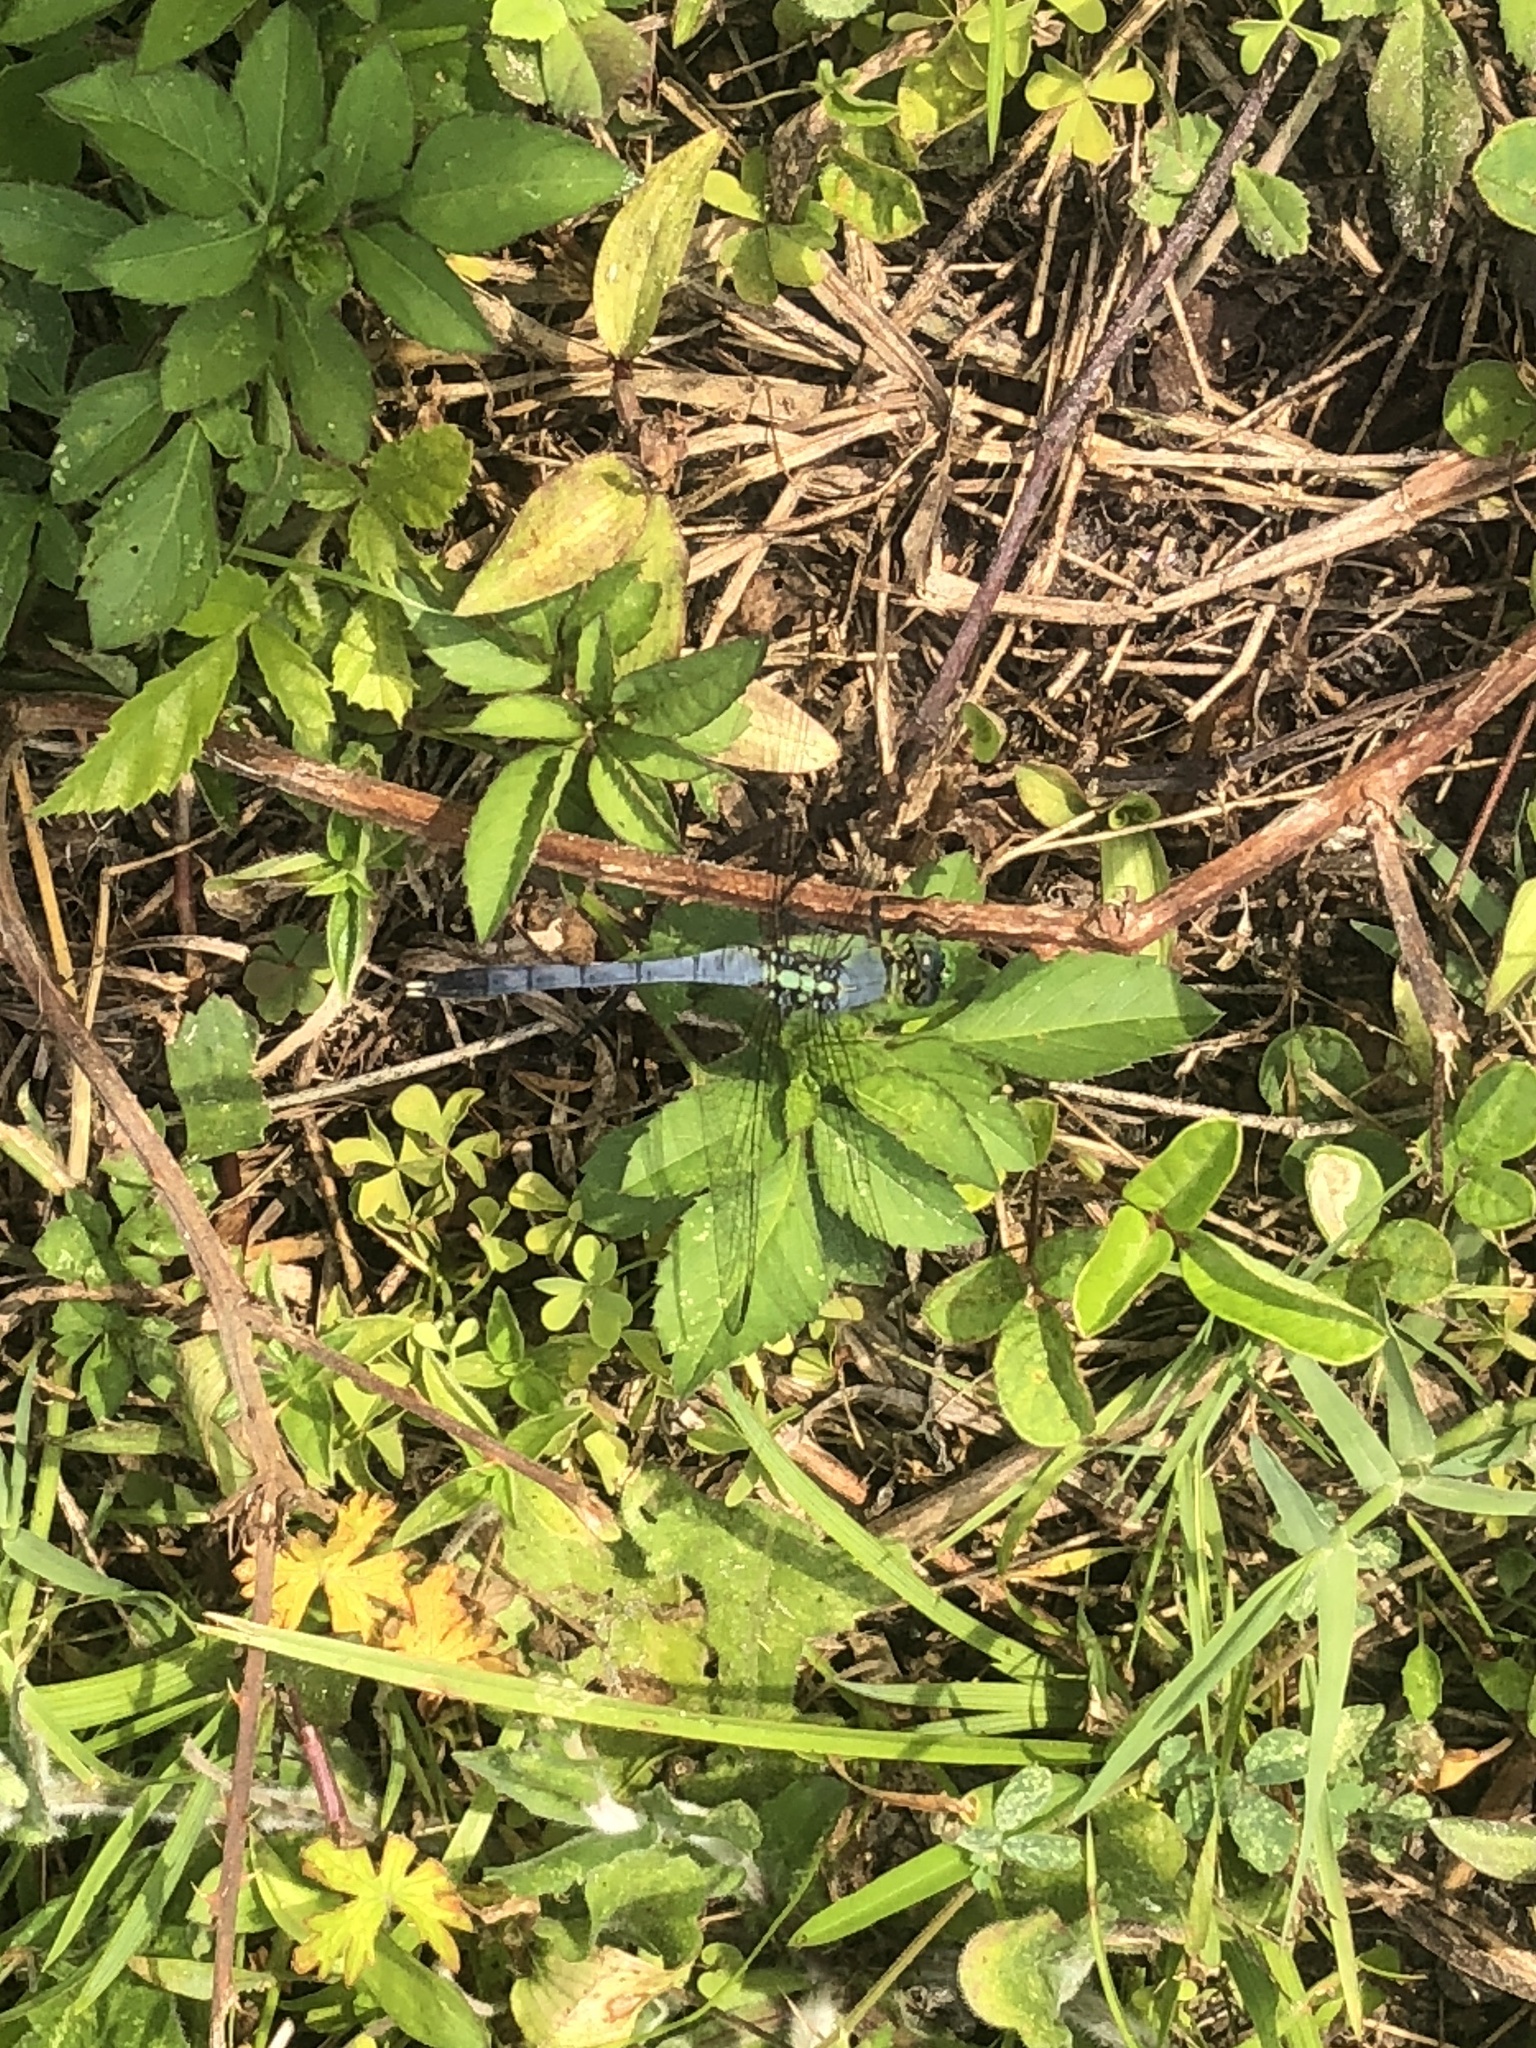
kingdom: Animalia
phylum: Arthropoda
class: Insecta
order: Odonata
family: Libellulidae
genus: Erythemis
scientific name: Erythemis simplicicollis
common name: Eastern pondhawk
